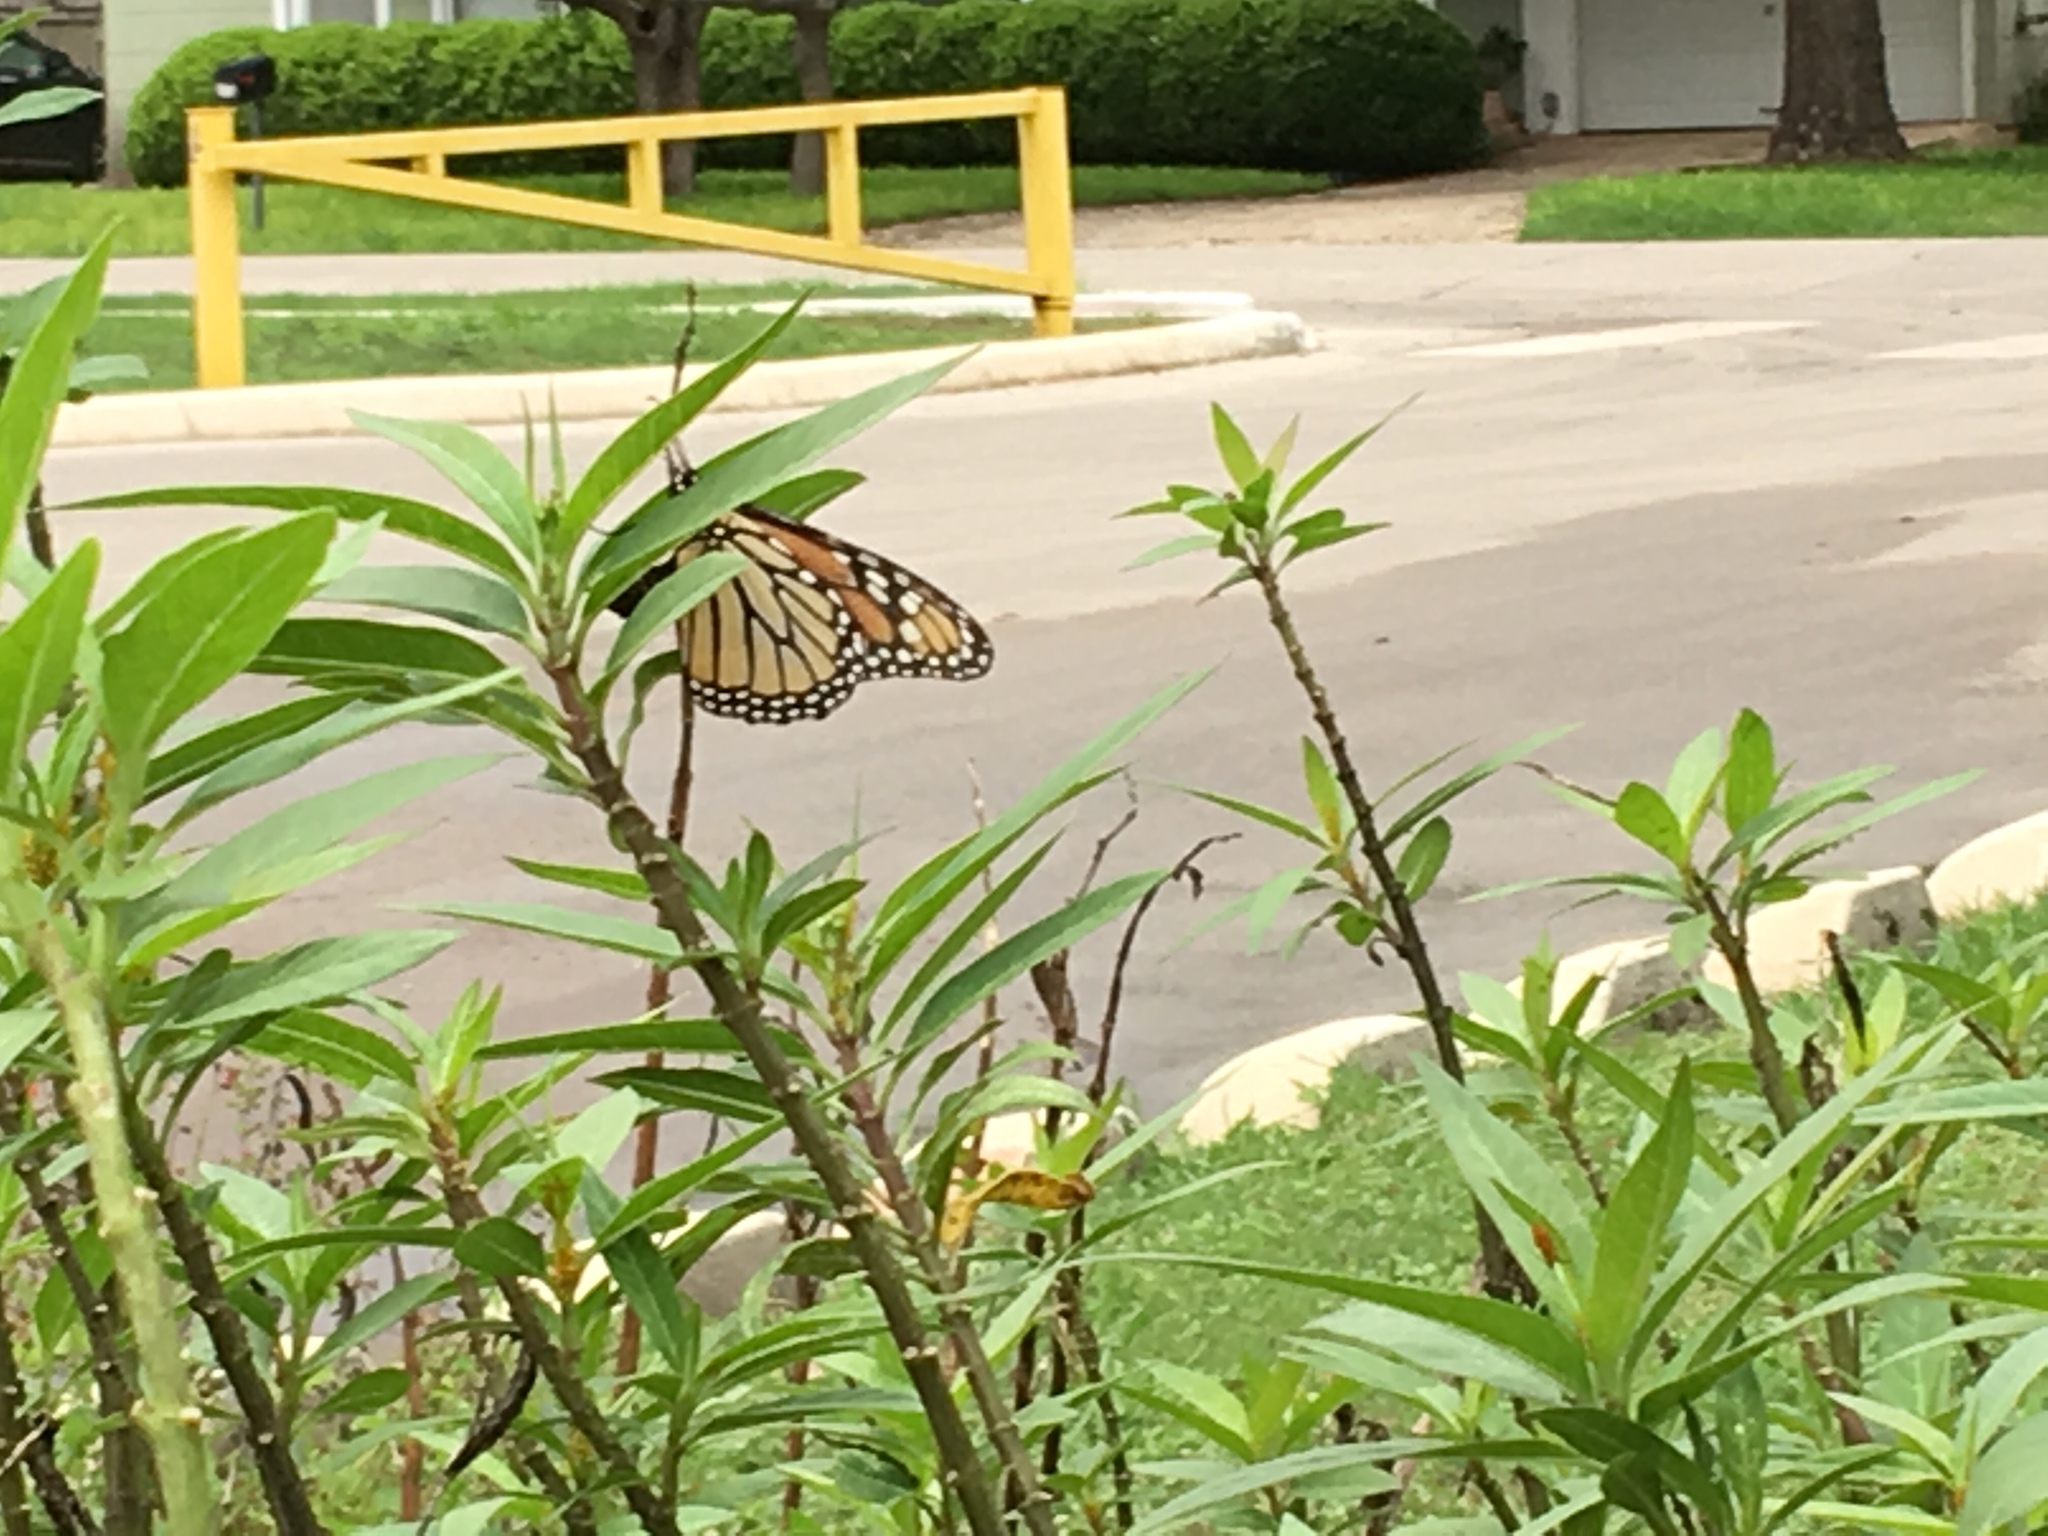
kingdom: Animalia
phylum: Arthropoda
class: Insecta
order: Lepidoptera
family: Nymphalidae
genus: Danaus
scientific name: Danaus plexippus
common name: Monarch
